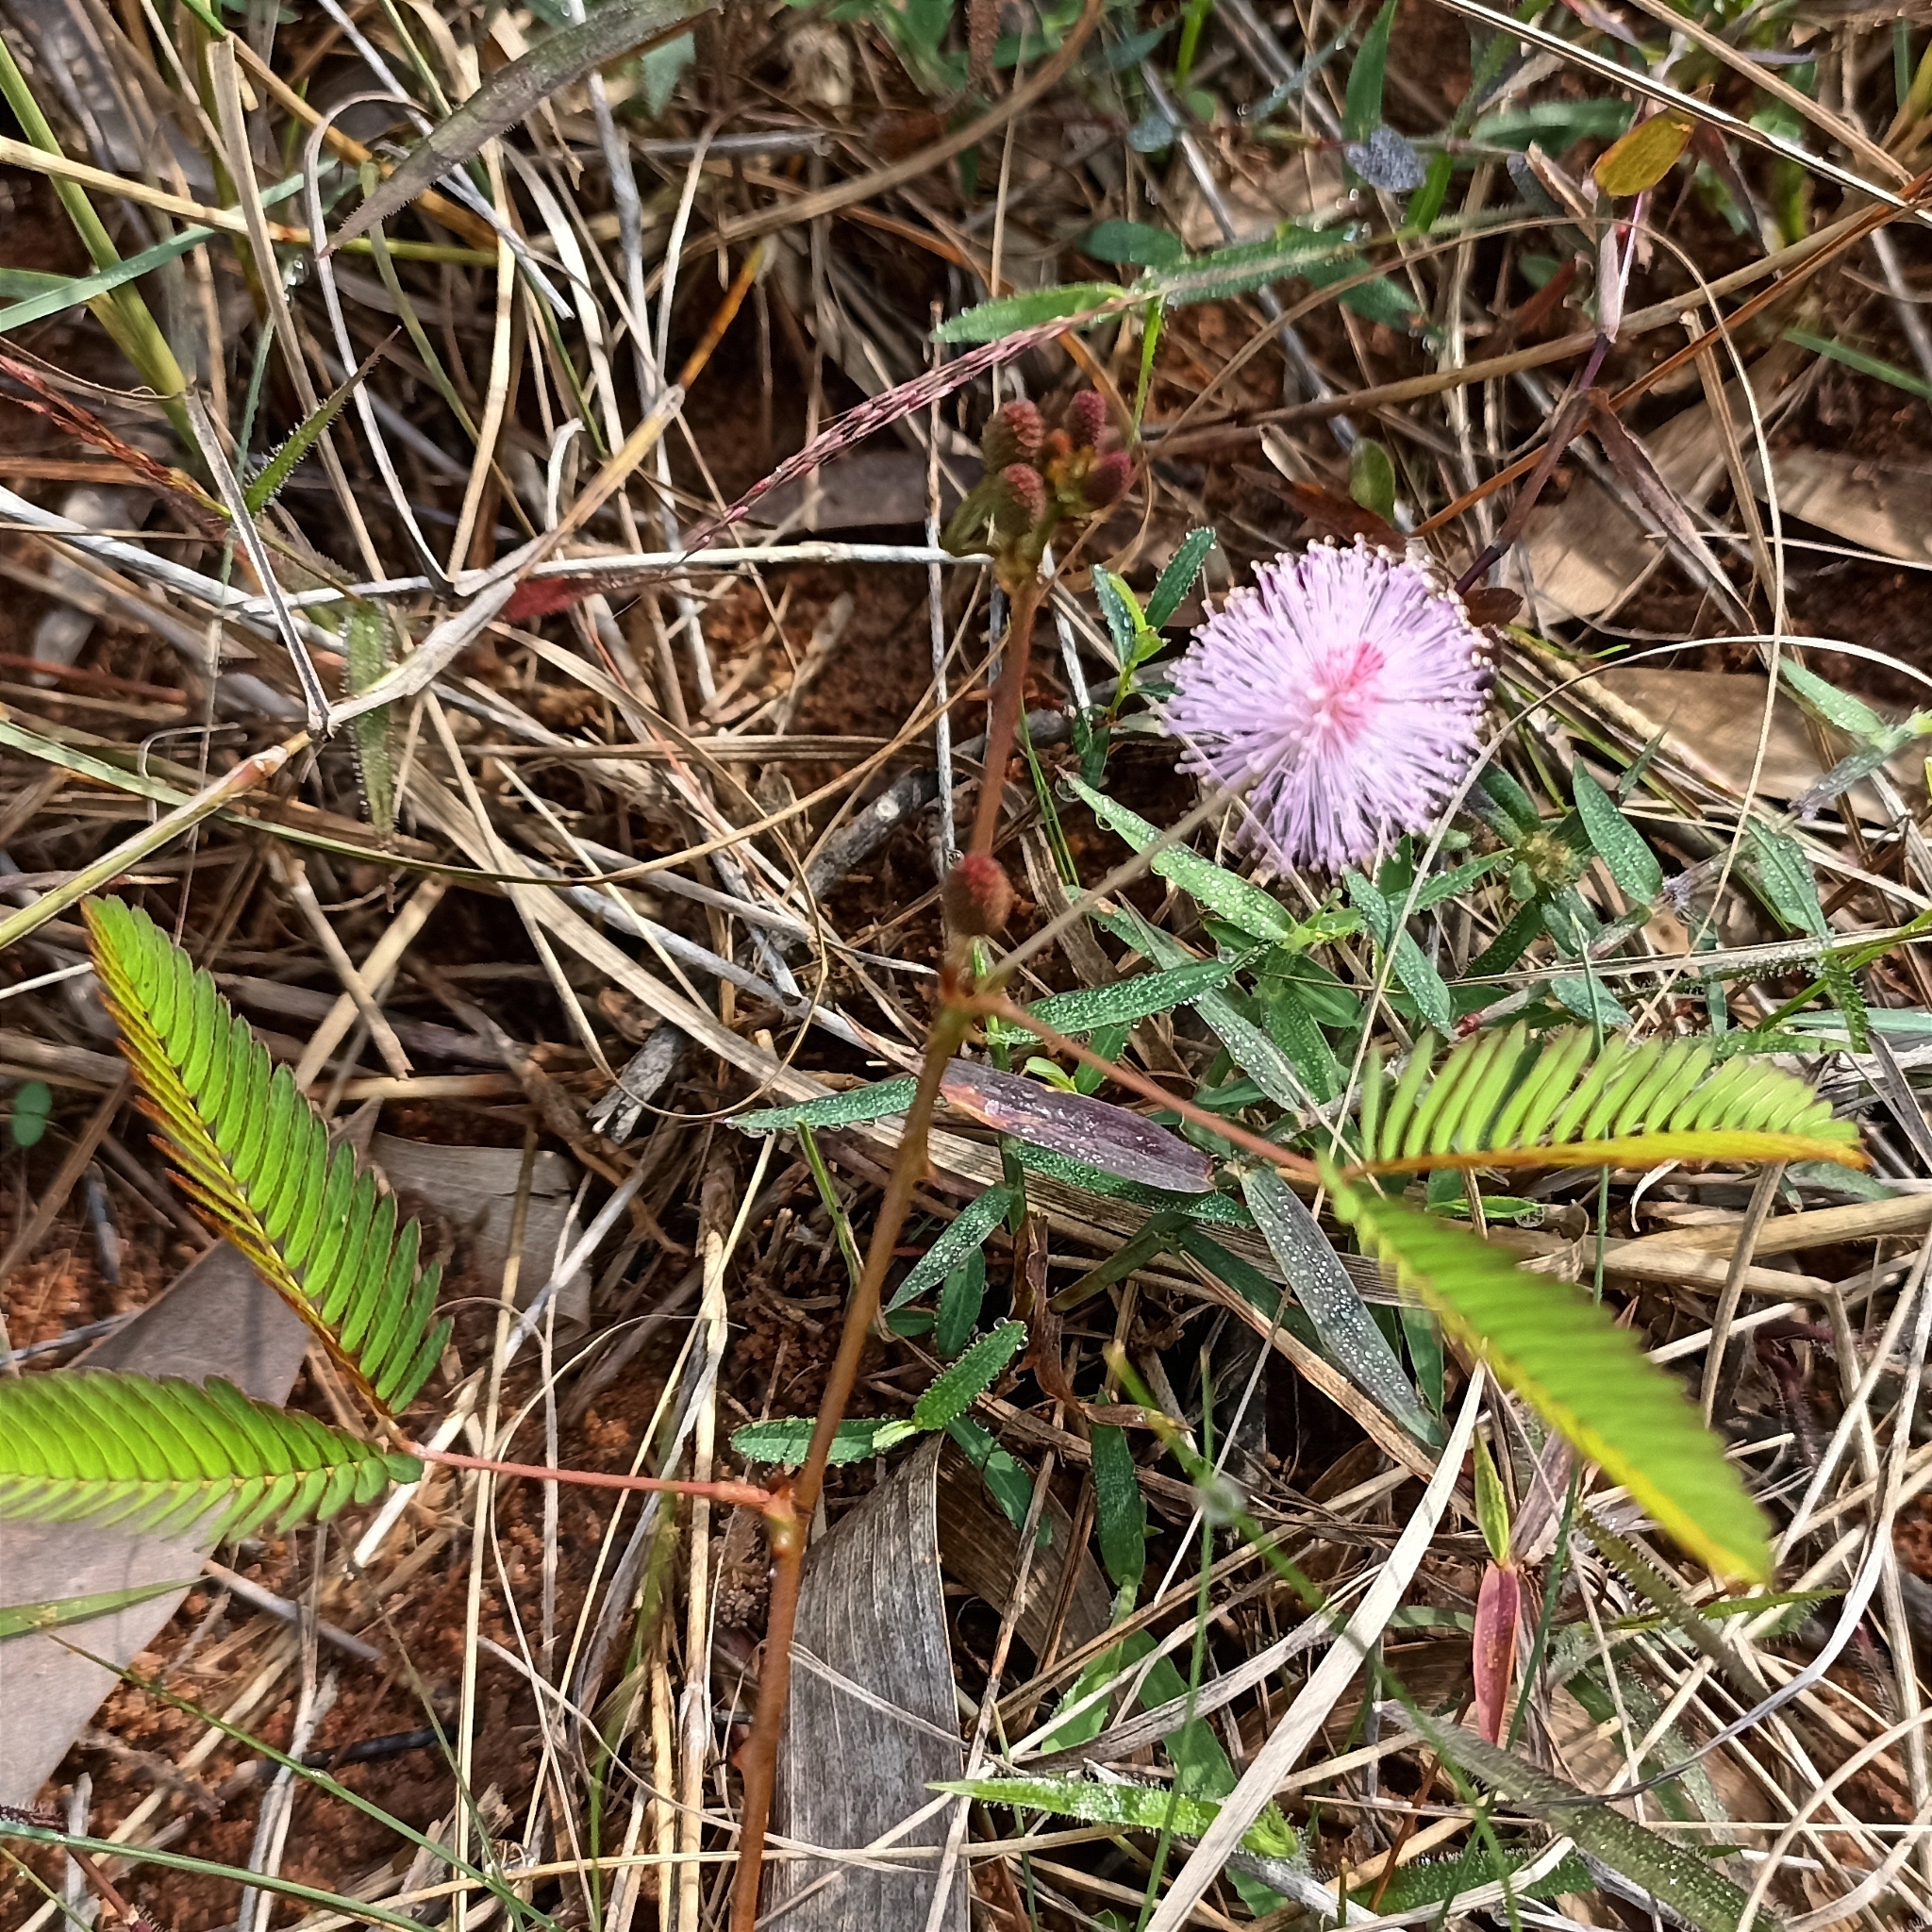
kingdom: Plantae
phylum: Tracheophyta
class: Magnoliopsida
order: Fabales
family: Fabaceae
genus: Mimosa
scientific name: Mimosa pudica
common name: Sensitive plant
